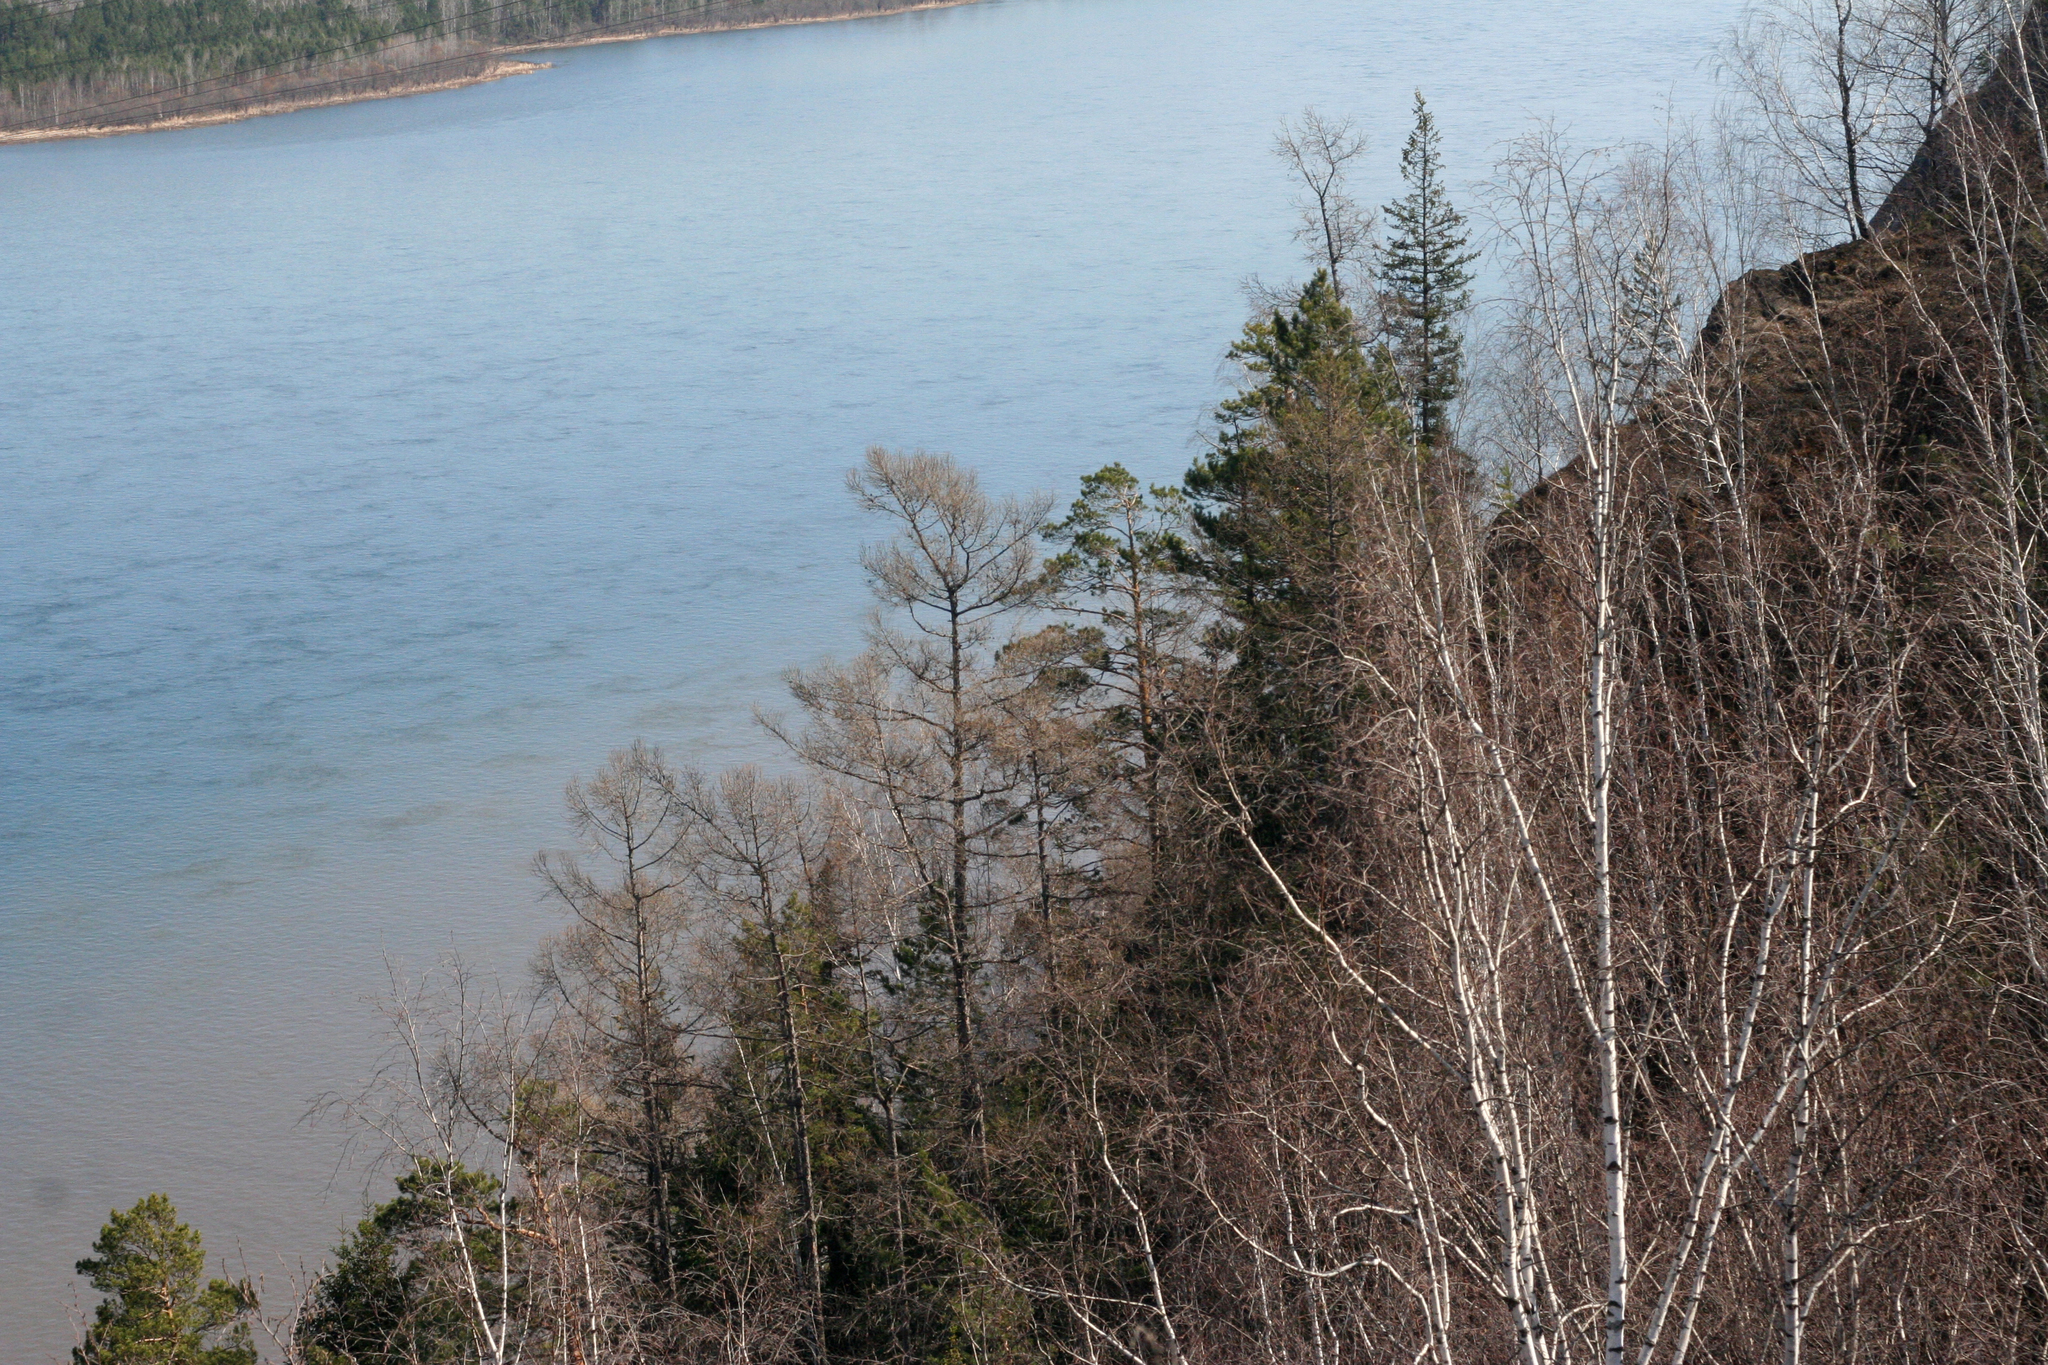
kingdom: Plantae
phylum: Tracheophyta
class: Pinopsida
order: Pinales
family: Pinaceae
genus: Larix
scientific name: Larix sibirica
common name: Siberian larch
